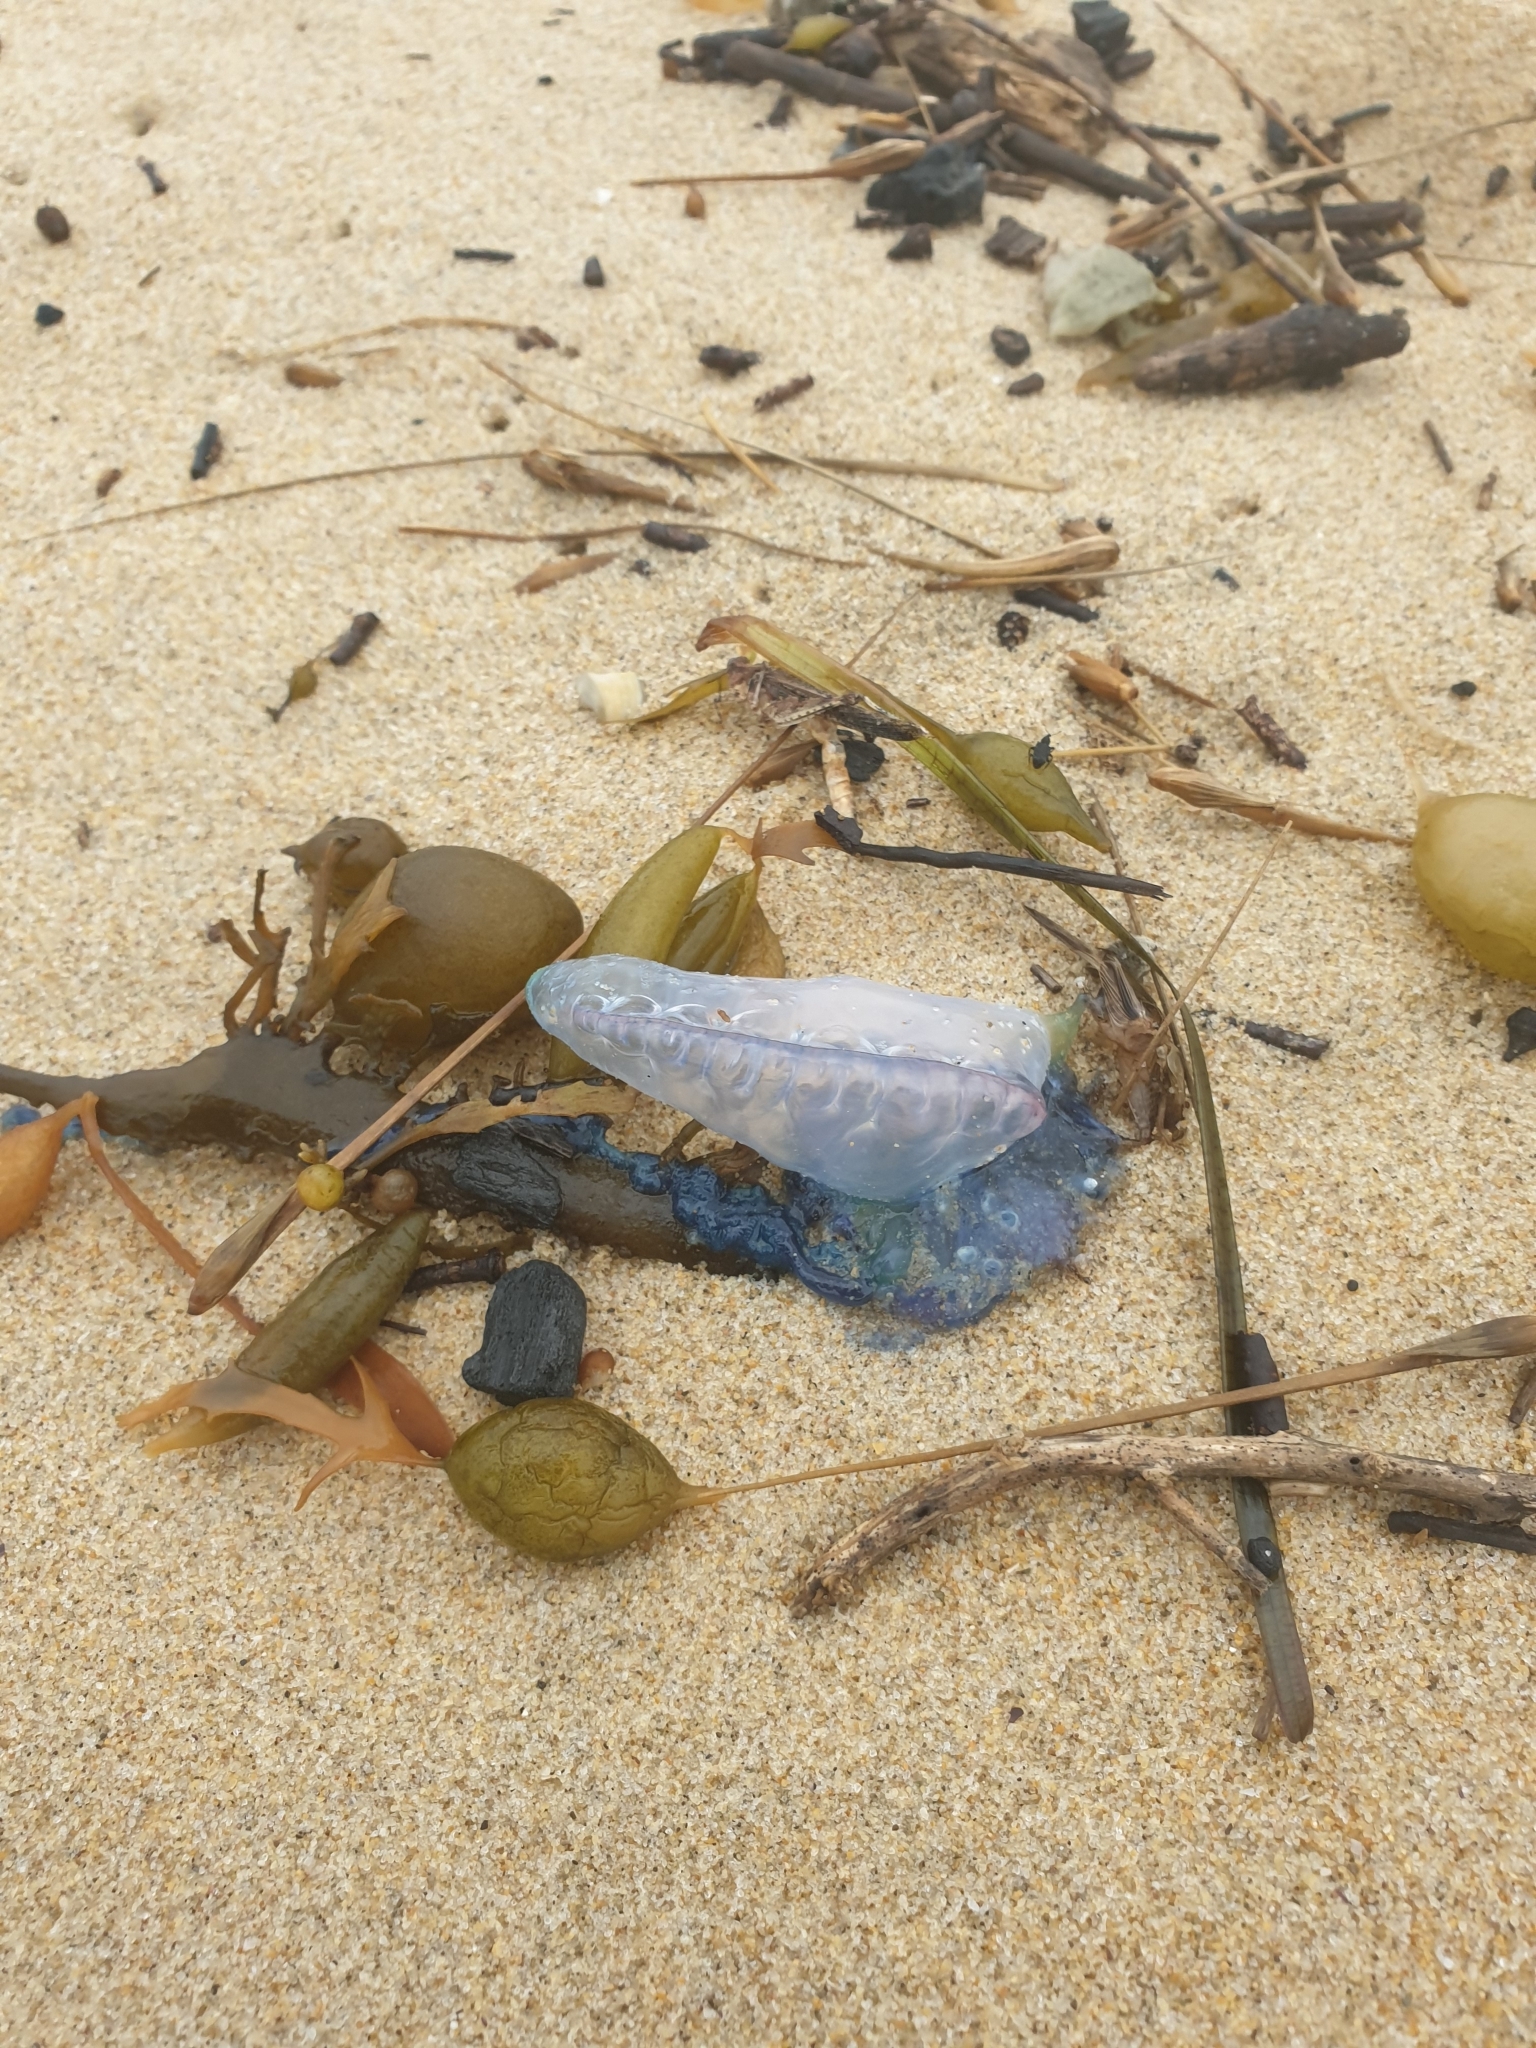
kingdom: Animalia
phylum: Cnidaria
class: Hydrozoa
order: Siphonophorae
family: Physaliidae
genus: Physalia
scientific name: Physalia physalis
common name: Portuguese man-of-war
